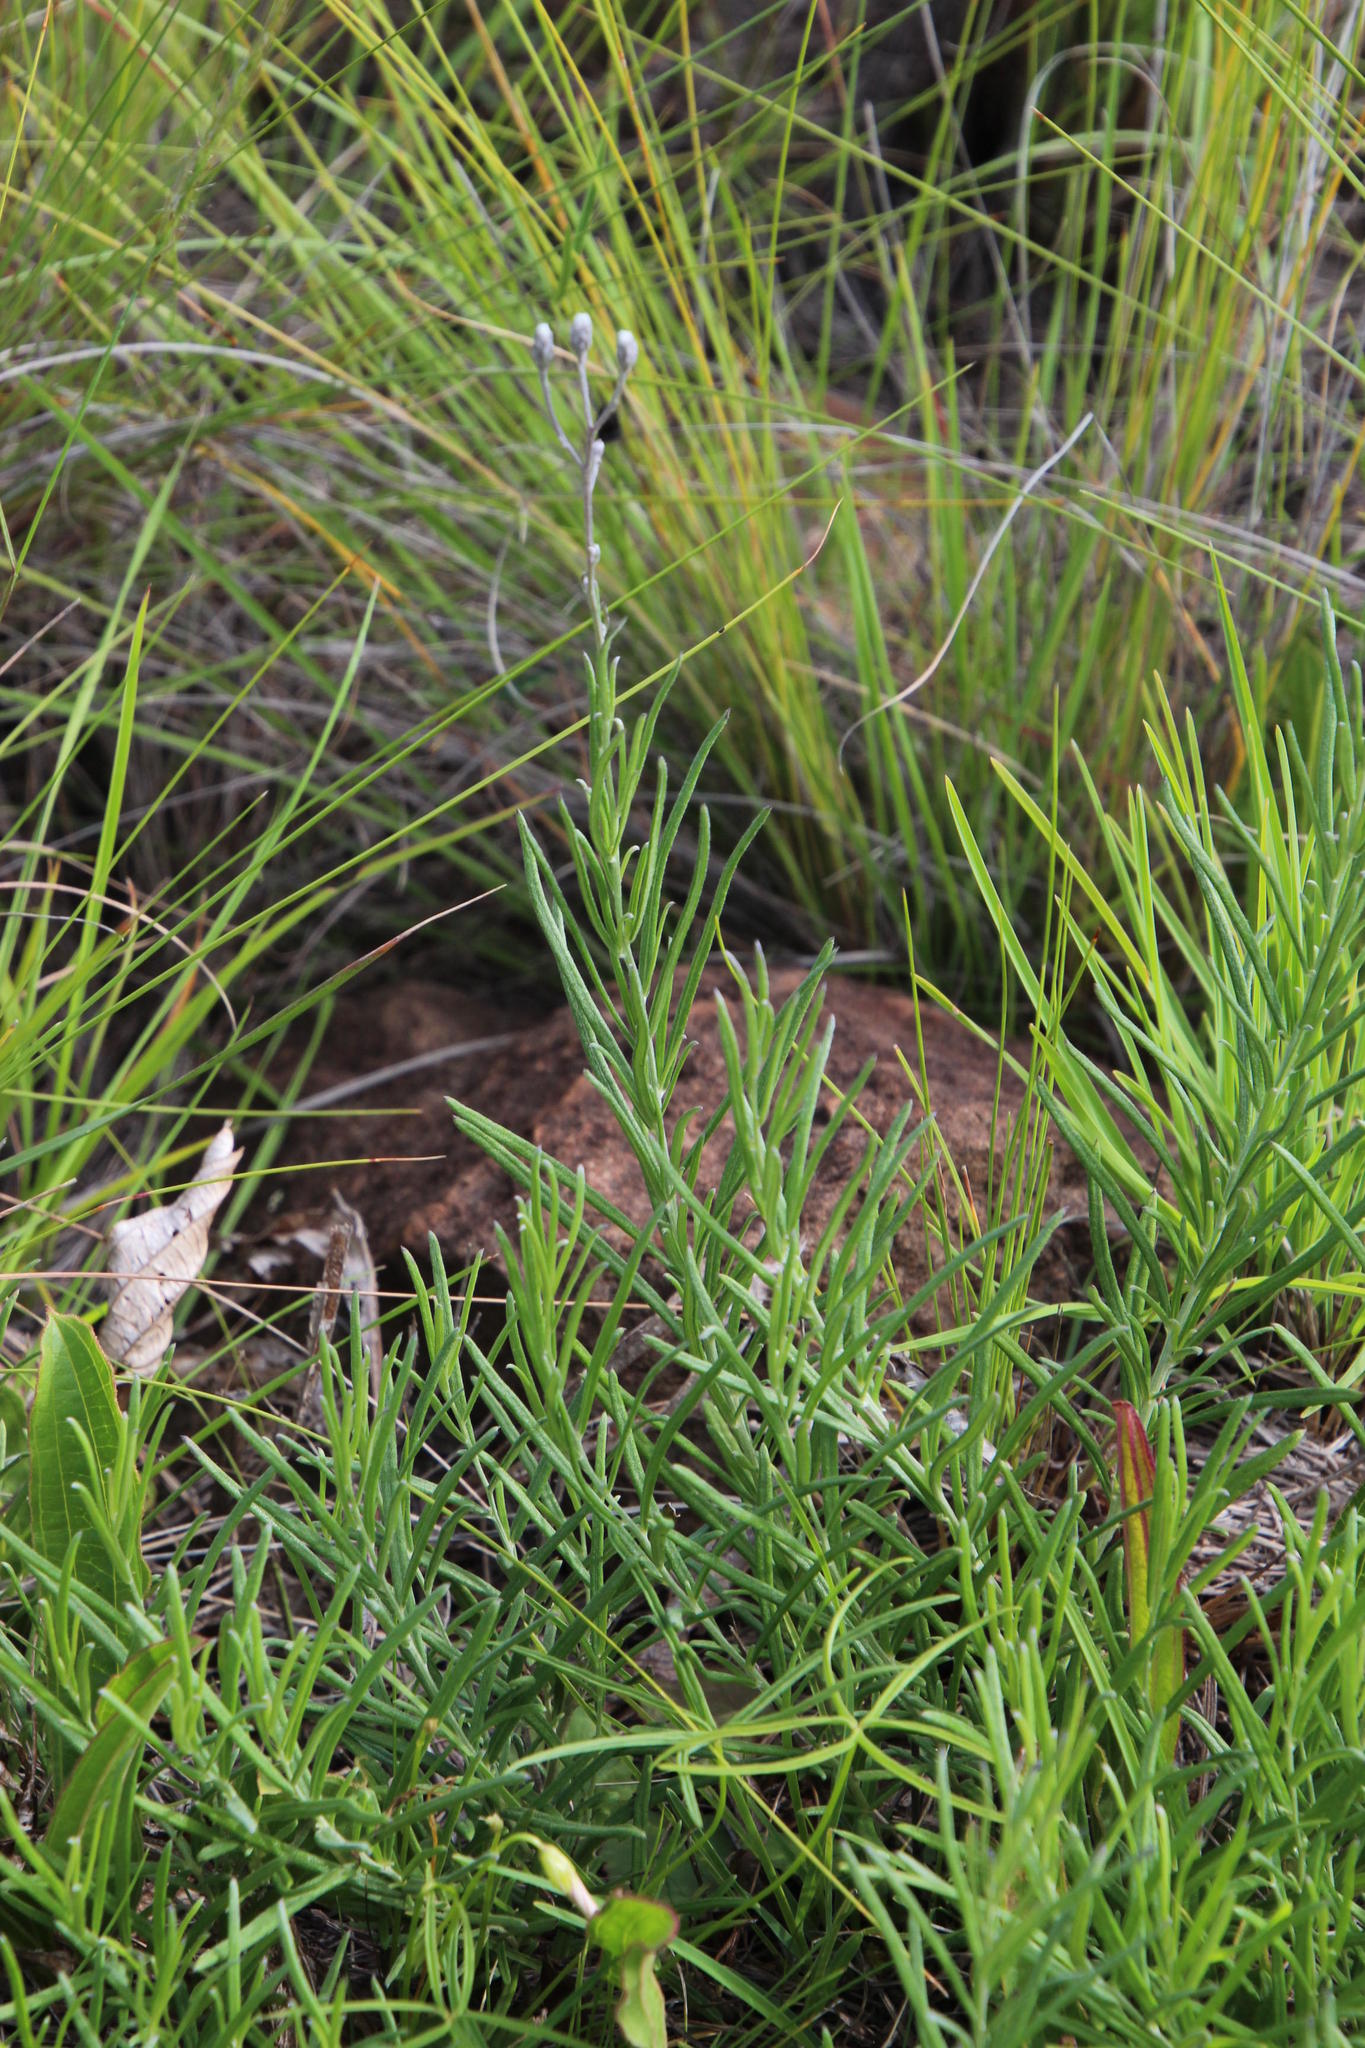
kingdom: Plantae
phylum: Tracheophyta
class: Magnoliopsida
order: Asterales
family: Asteraceae
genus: Hilliardiella
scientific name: Hilliardiella capensis
